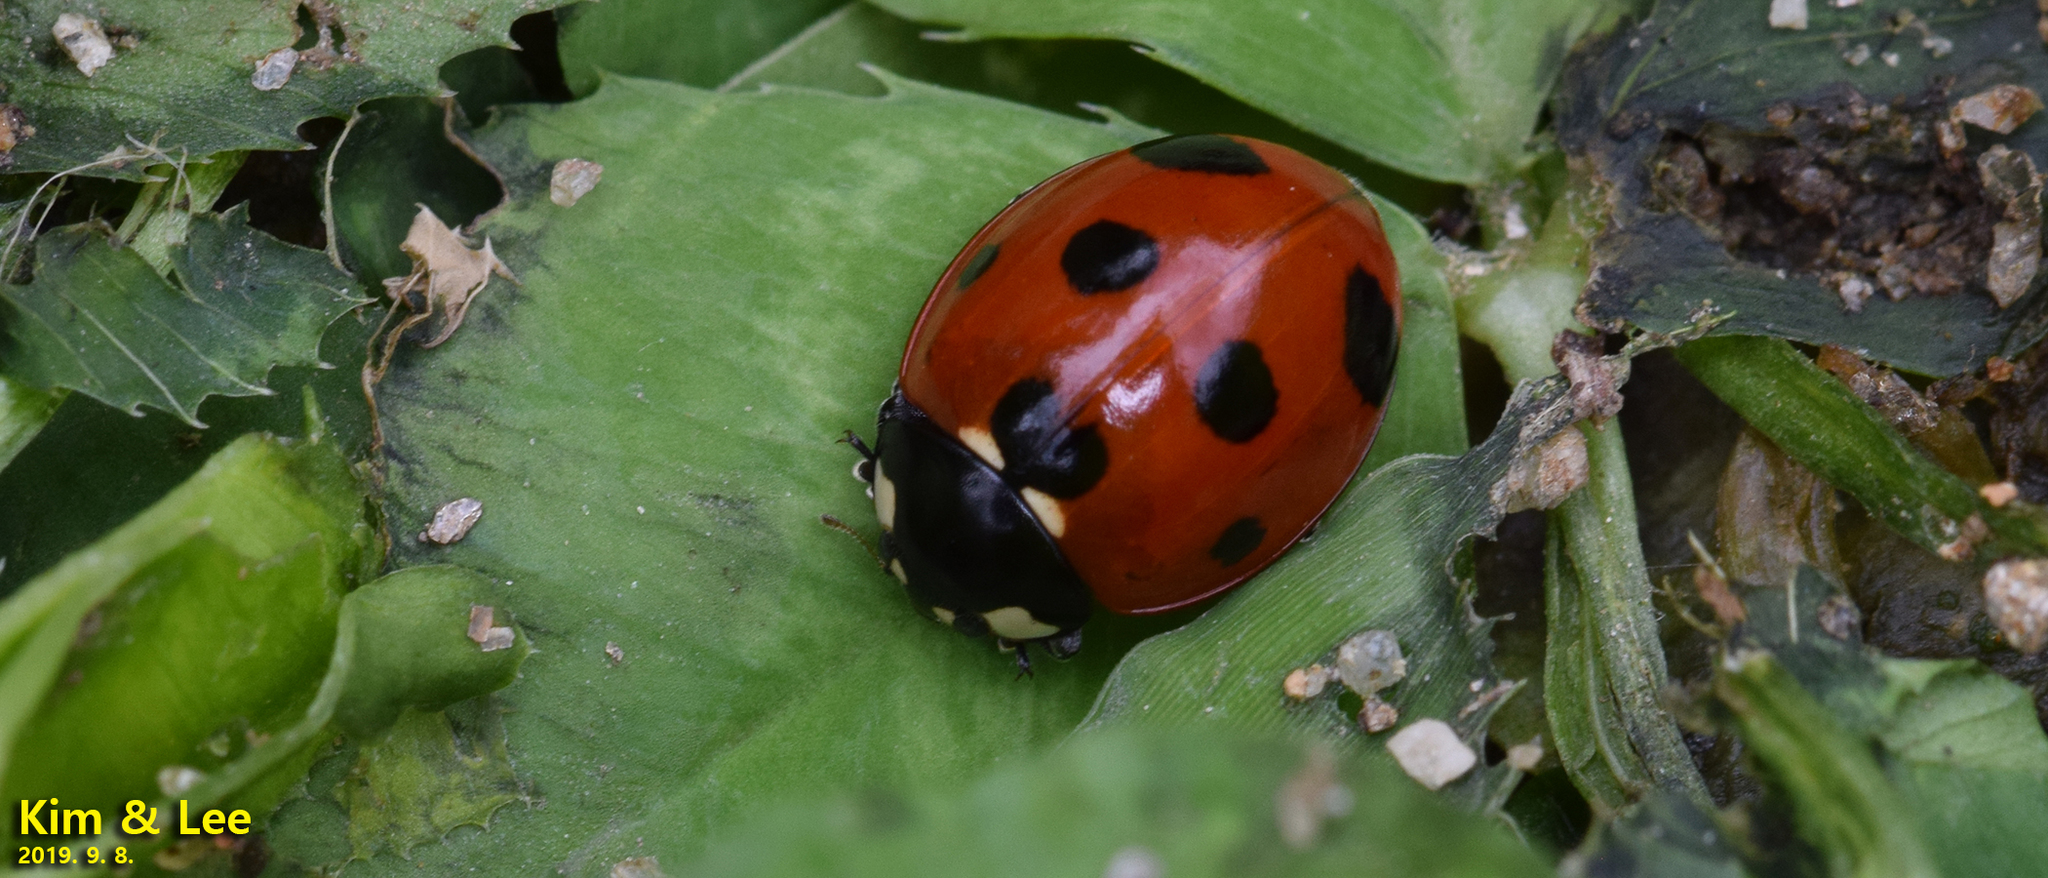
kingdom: Animalia
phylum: Arthropoda
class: Insecta
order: Coleoptera
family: Coccinellidae
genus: Coccinella
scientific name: Coccinella septempunctata
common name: Sevenspotted lady beetle
